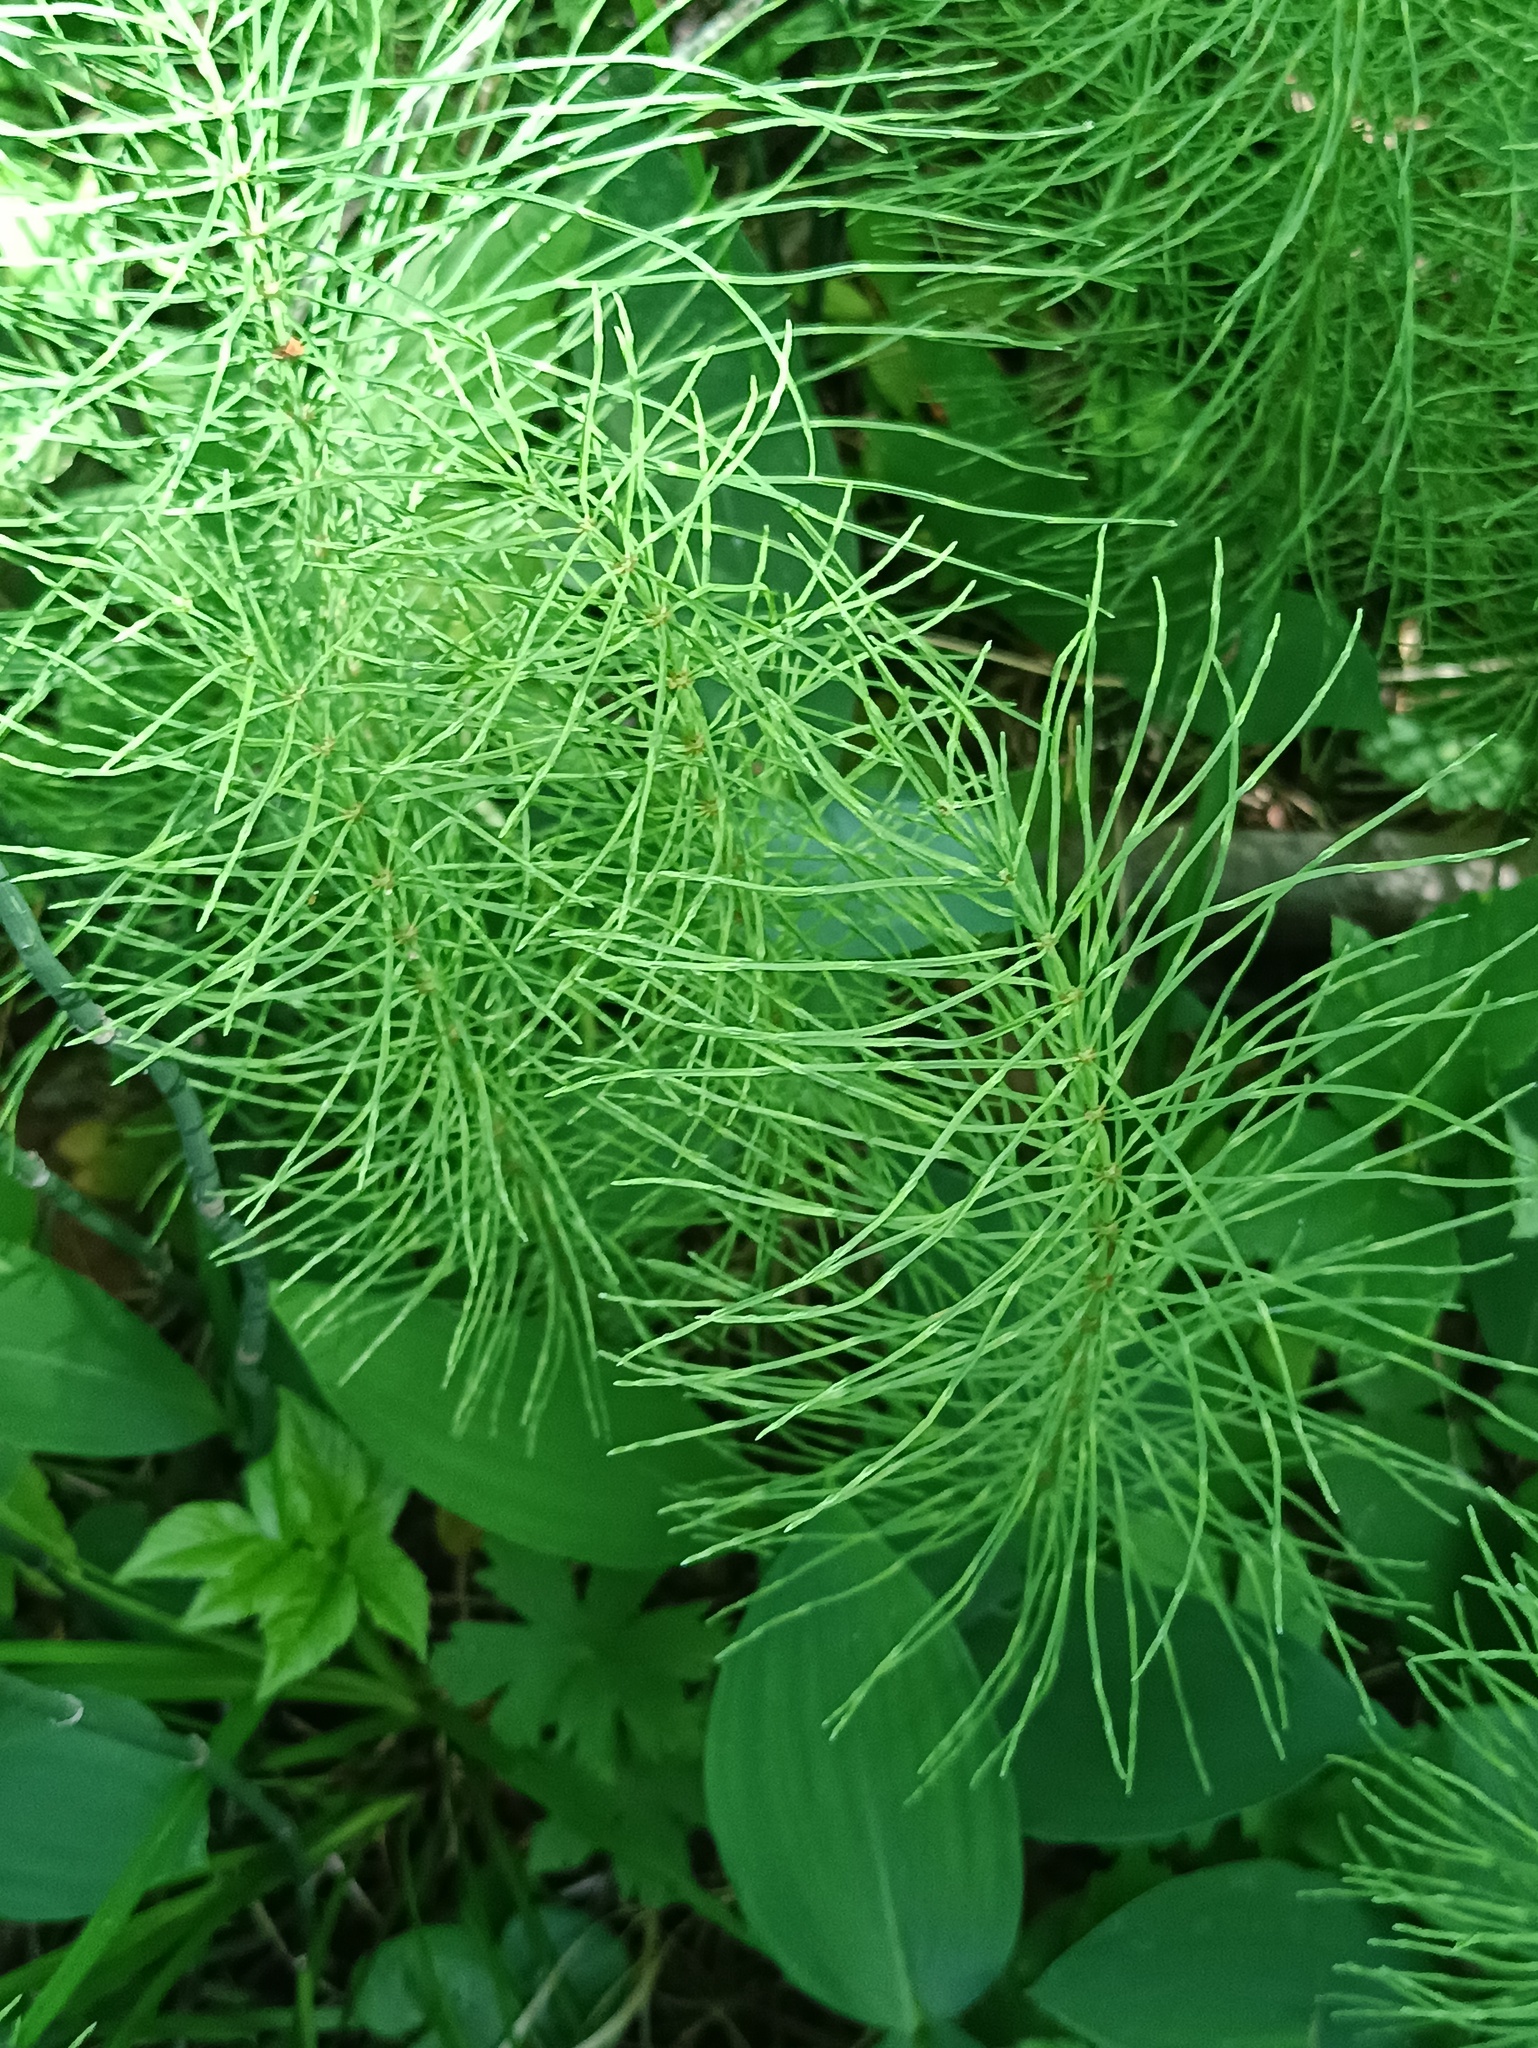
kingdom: Plantae
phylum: Tracheophyta
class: Polypodiopsida
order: Equisetales
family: Equisetaceae
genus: Equisetum
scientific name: Equisetum pratense
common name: Meadow horsetail
